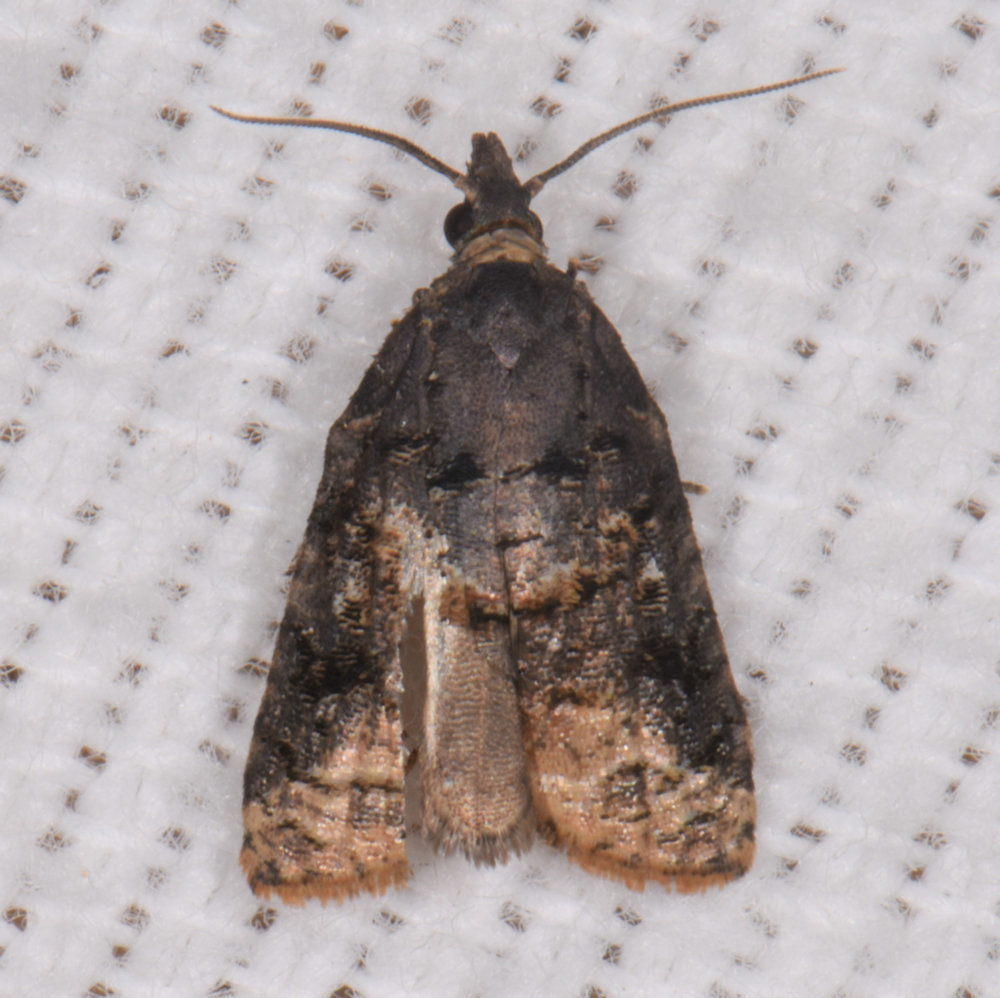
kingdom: Animalia
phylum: Arthropoda
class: Insecta
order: Lepidoptera
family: Tortricidae
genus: Platynota
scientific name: Platynota idaeusalis
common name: Tufted apple bud moth
